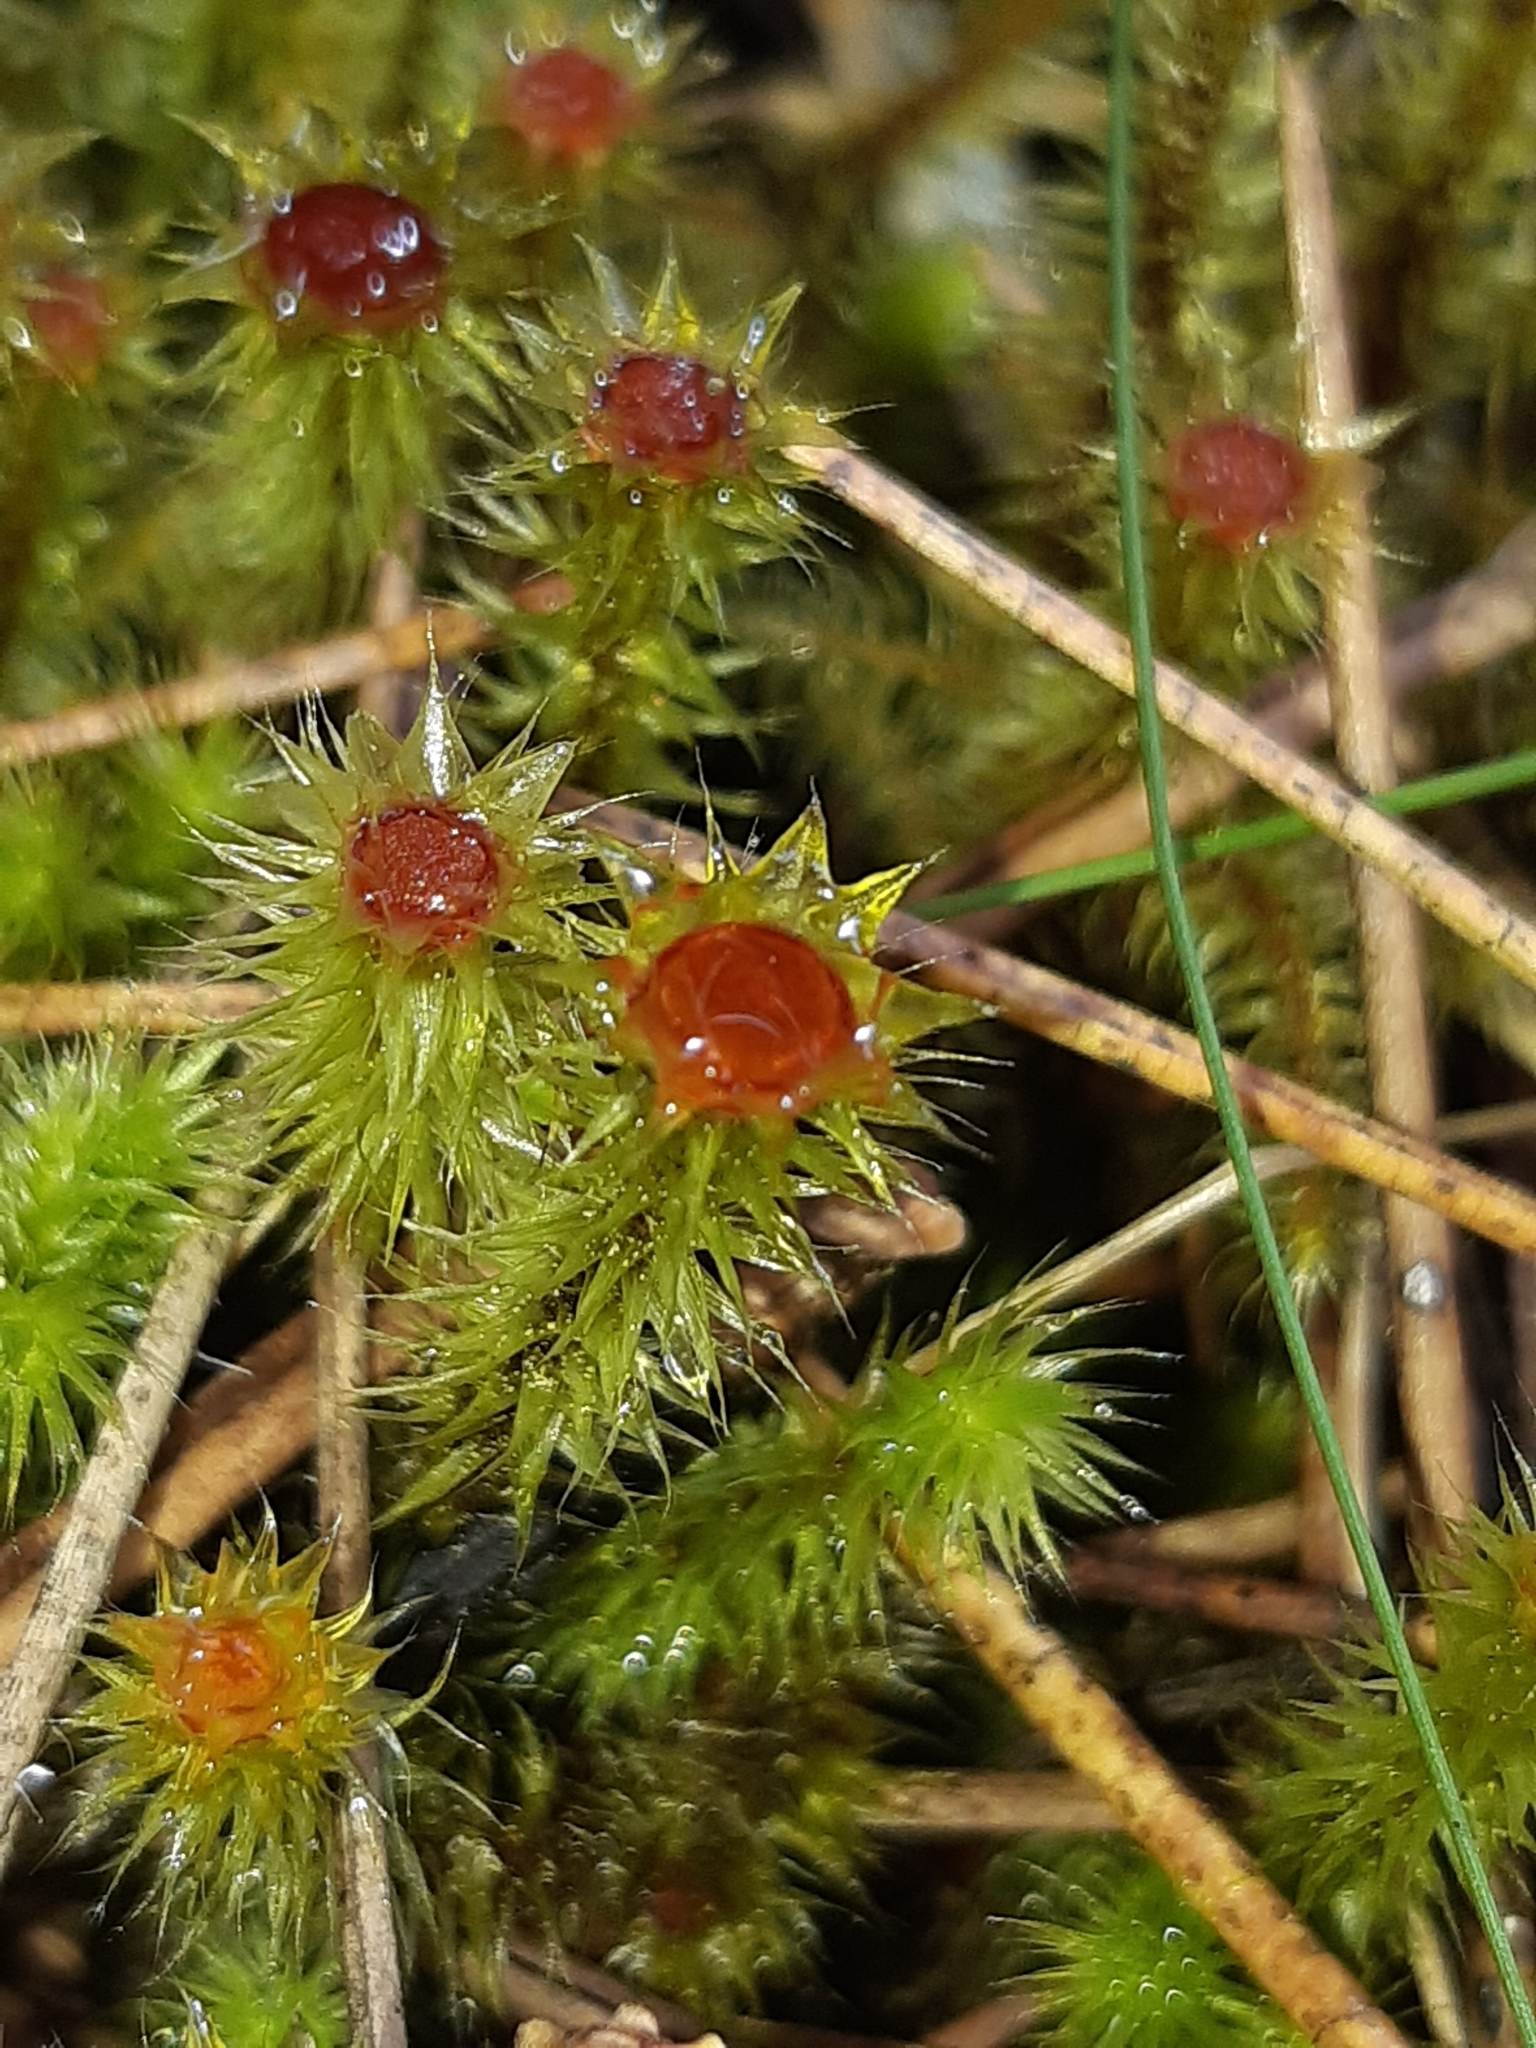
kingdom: Plantae
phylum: Bryophyta
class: Bryopsida
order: Bartramiales
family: Bartramiaceae
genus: Breutelia
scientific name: Breutelia pendula
